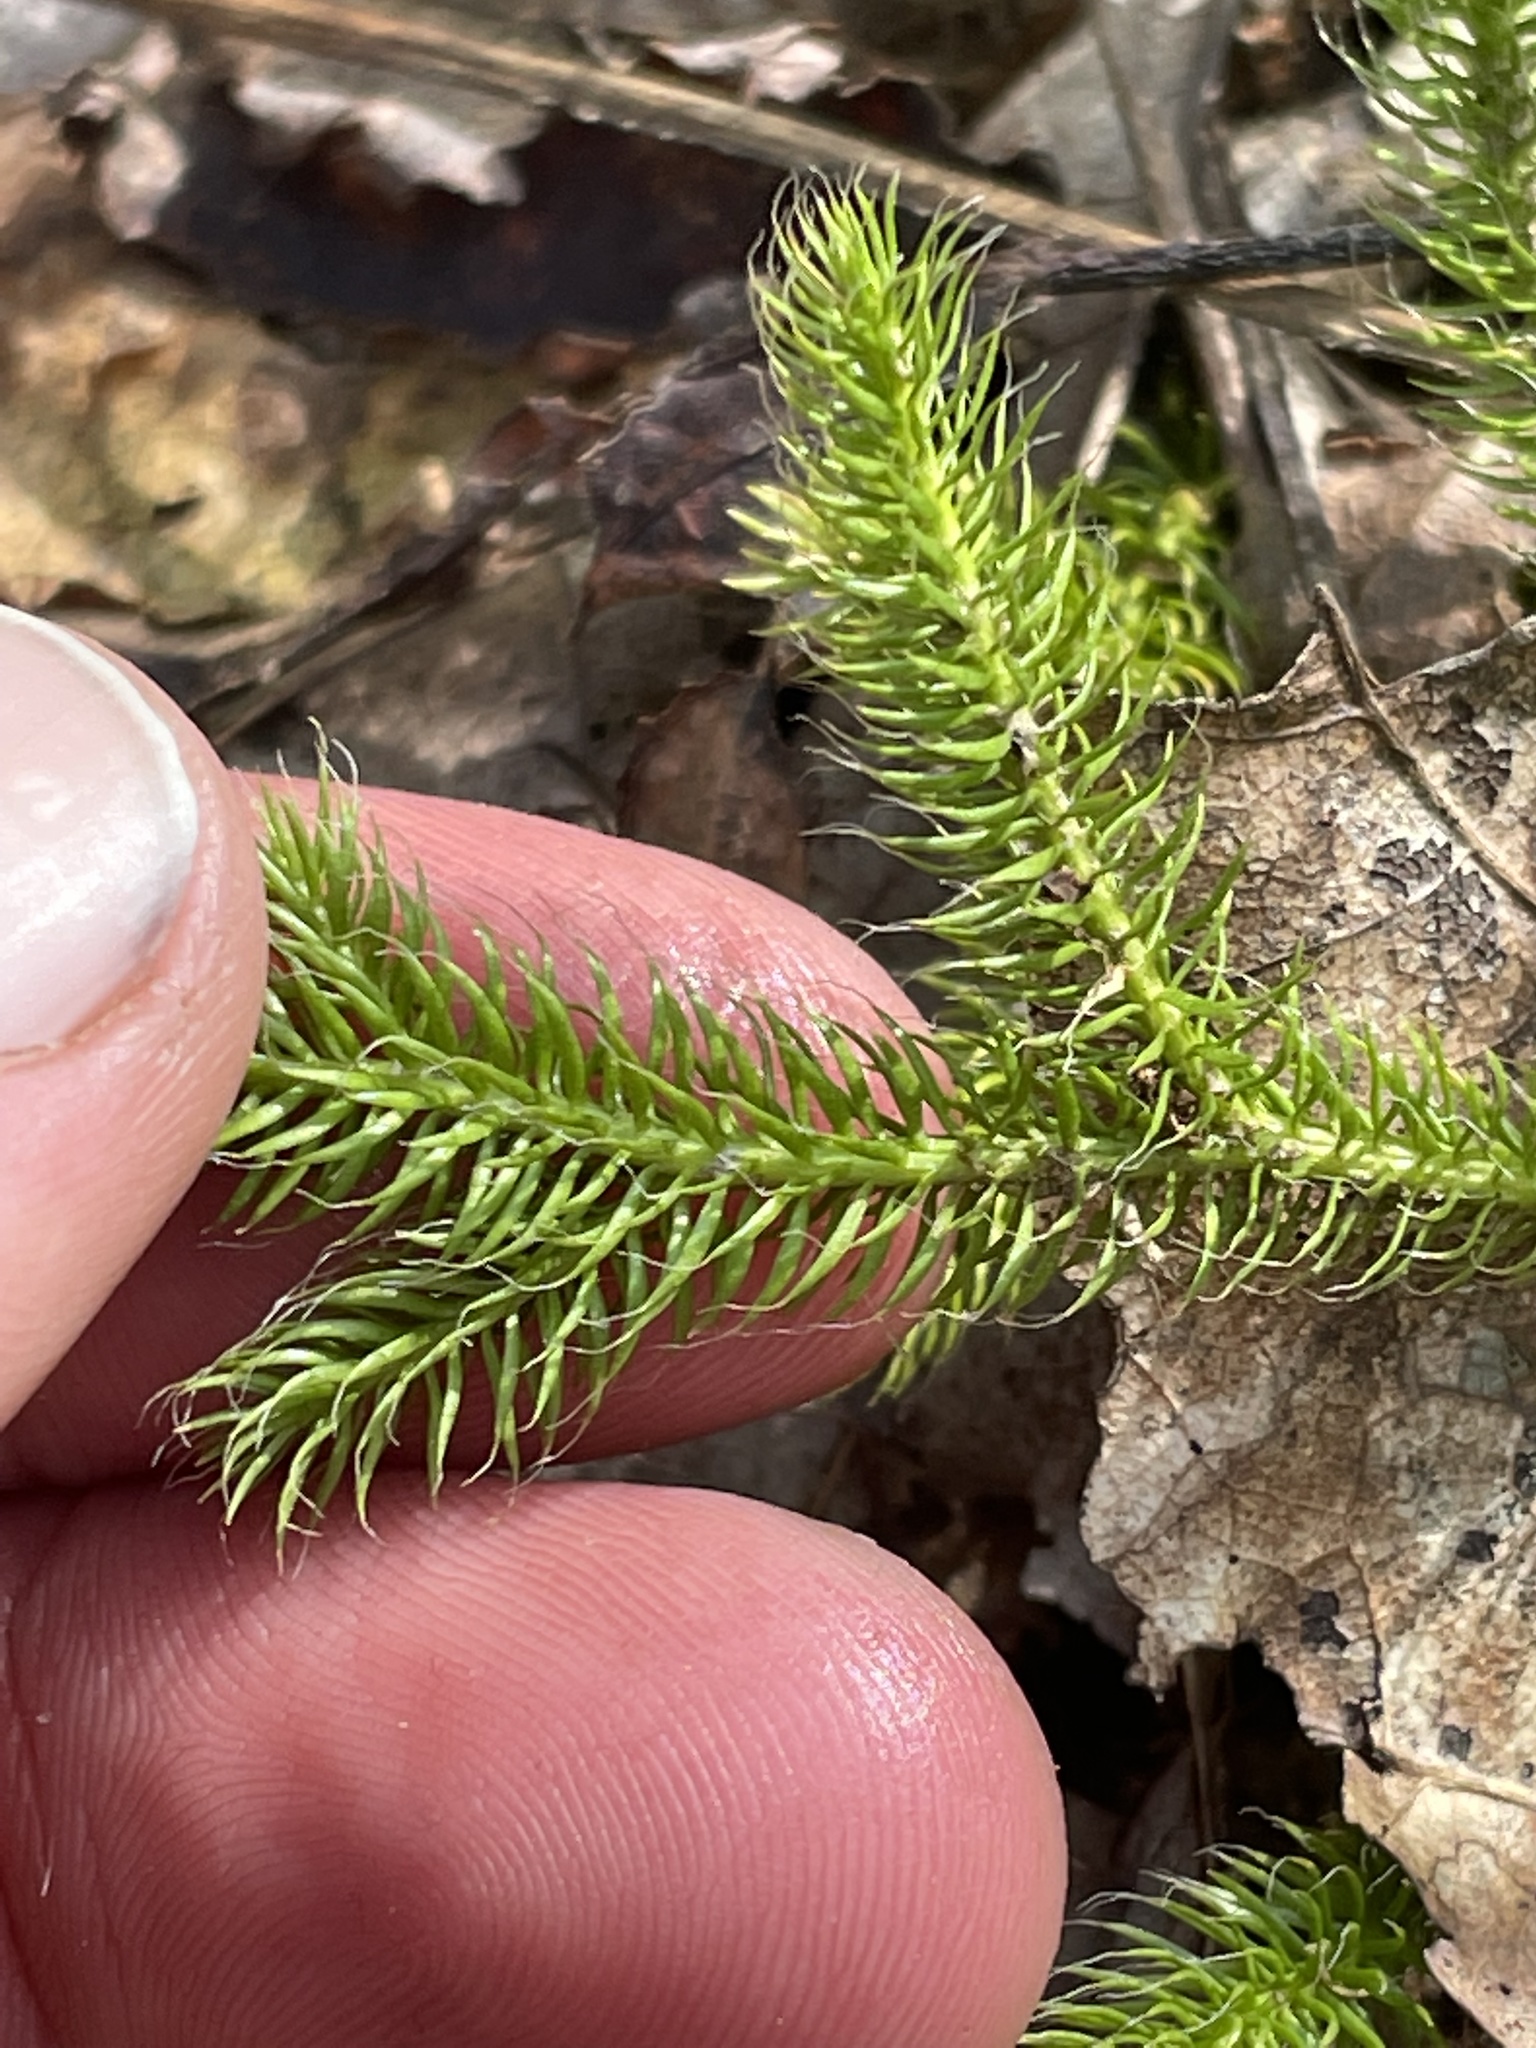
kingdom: Plantae
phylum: Tracheophyta
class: Lycopodiopsida
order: Lycopodiales
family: Lycopodiaceae
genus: Lycopodium
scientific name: Lycopodium clavatum
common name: Stag's-horn clubmoss
